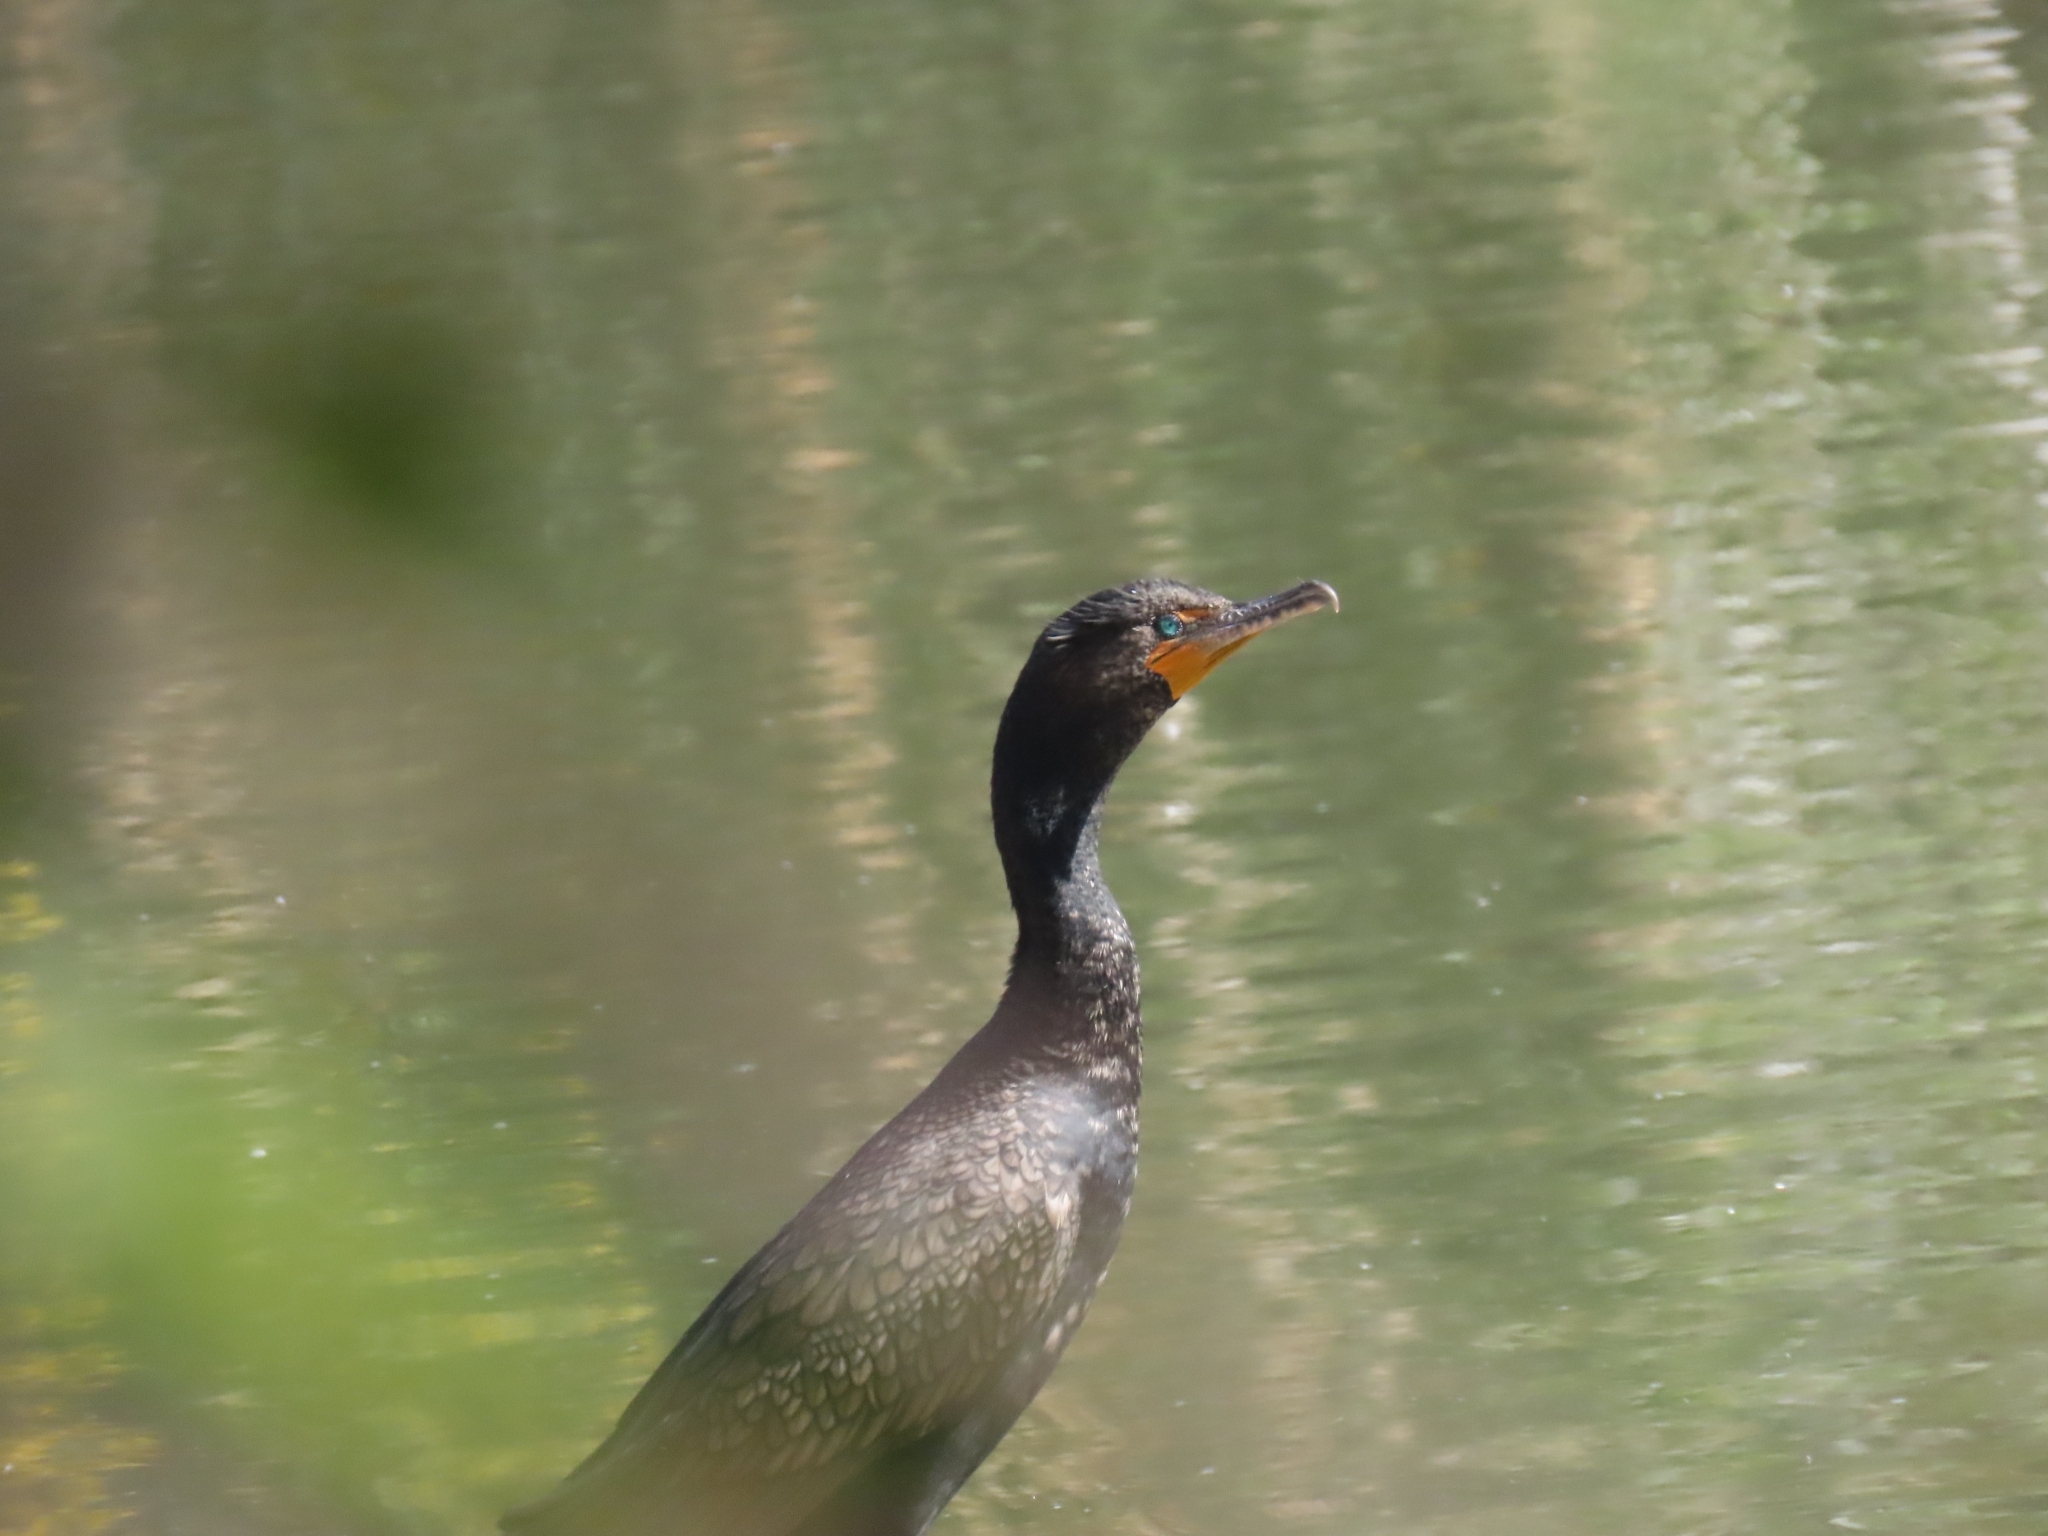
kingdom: Animalia
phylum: Chordata
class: Aves
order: Suliformes
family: Phalacrocoracidae
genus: Phalacrocorax
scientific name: Phalacrocorax auritus
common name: Double-crested cormorant
